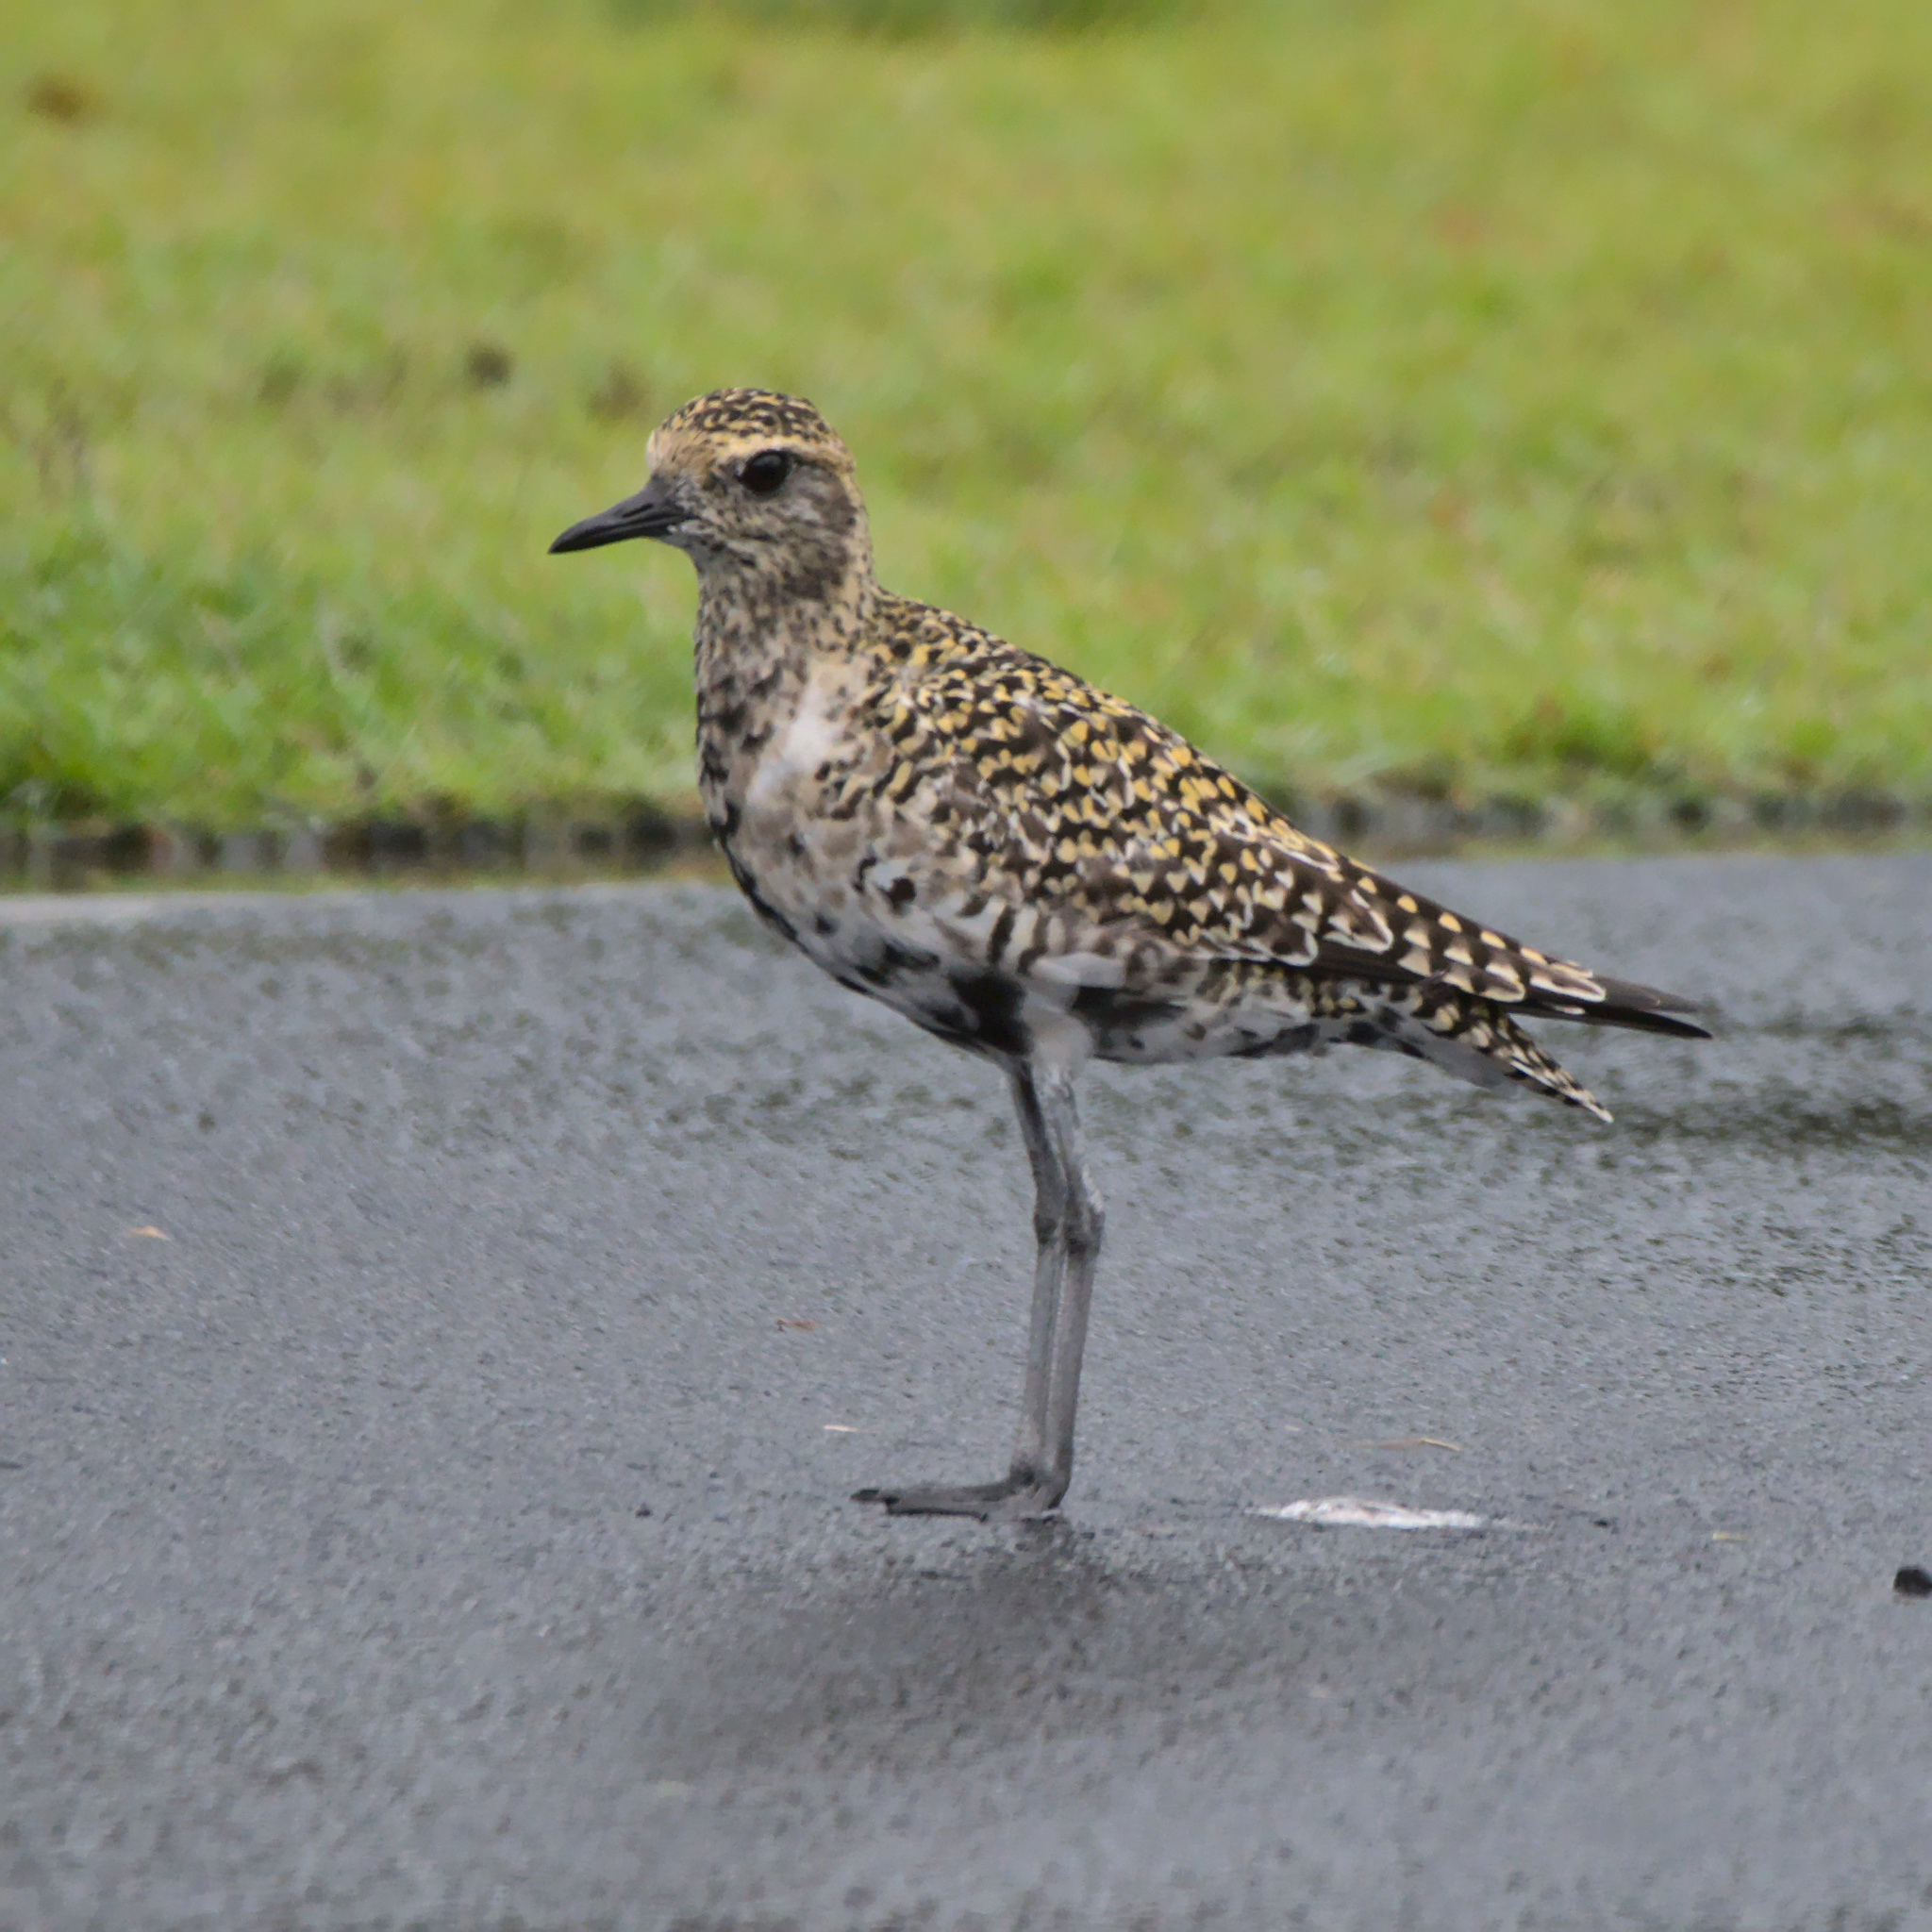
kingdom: Animalia
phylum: Chordata
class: Aves
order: Charadriiformes
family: Charadriidae
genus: Pluvialis
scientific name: Pluvialis fulva
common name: Pacific golden plover
